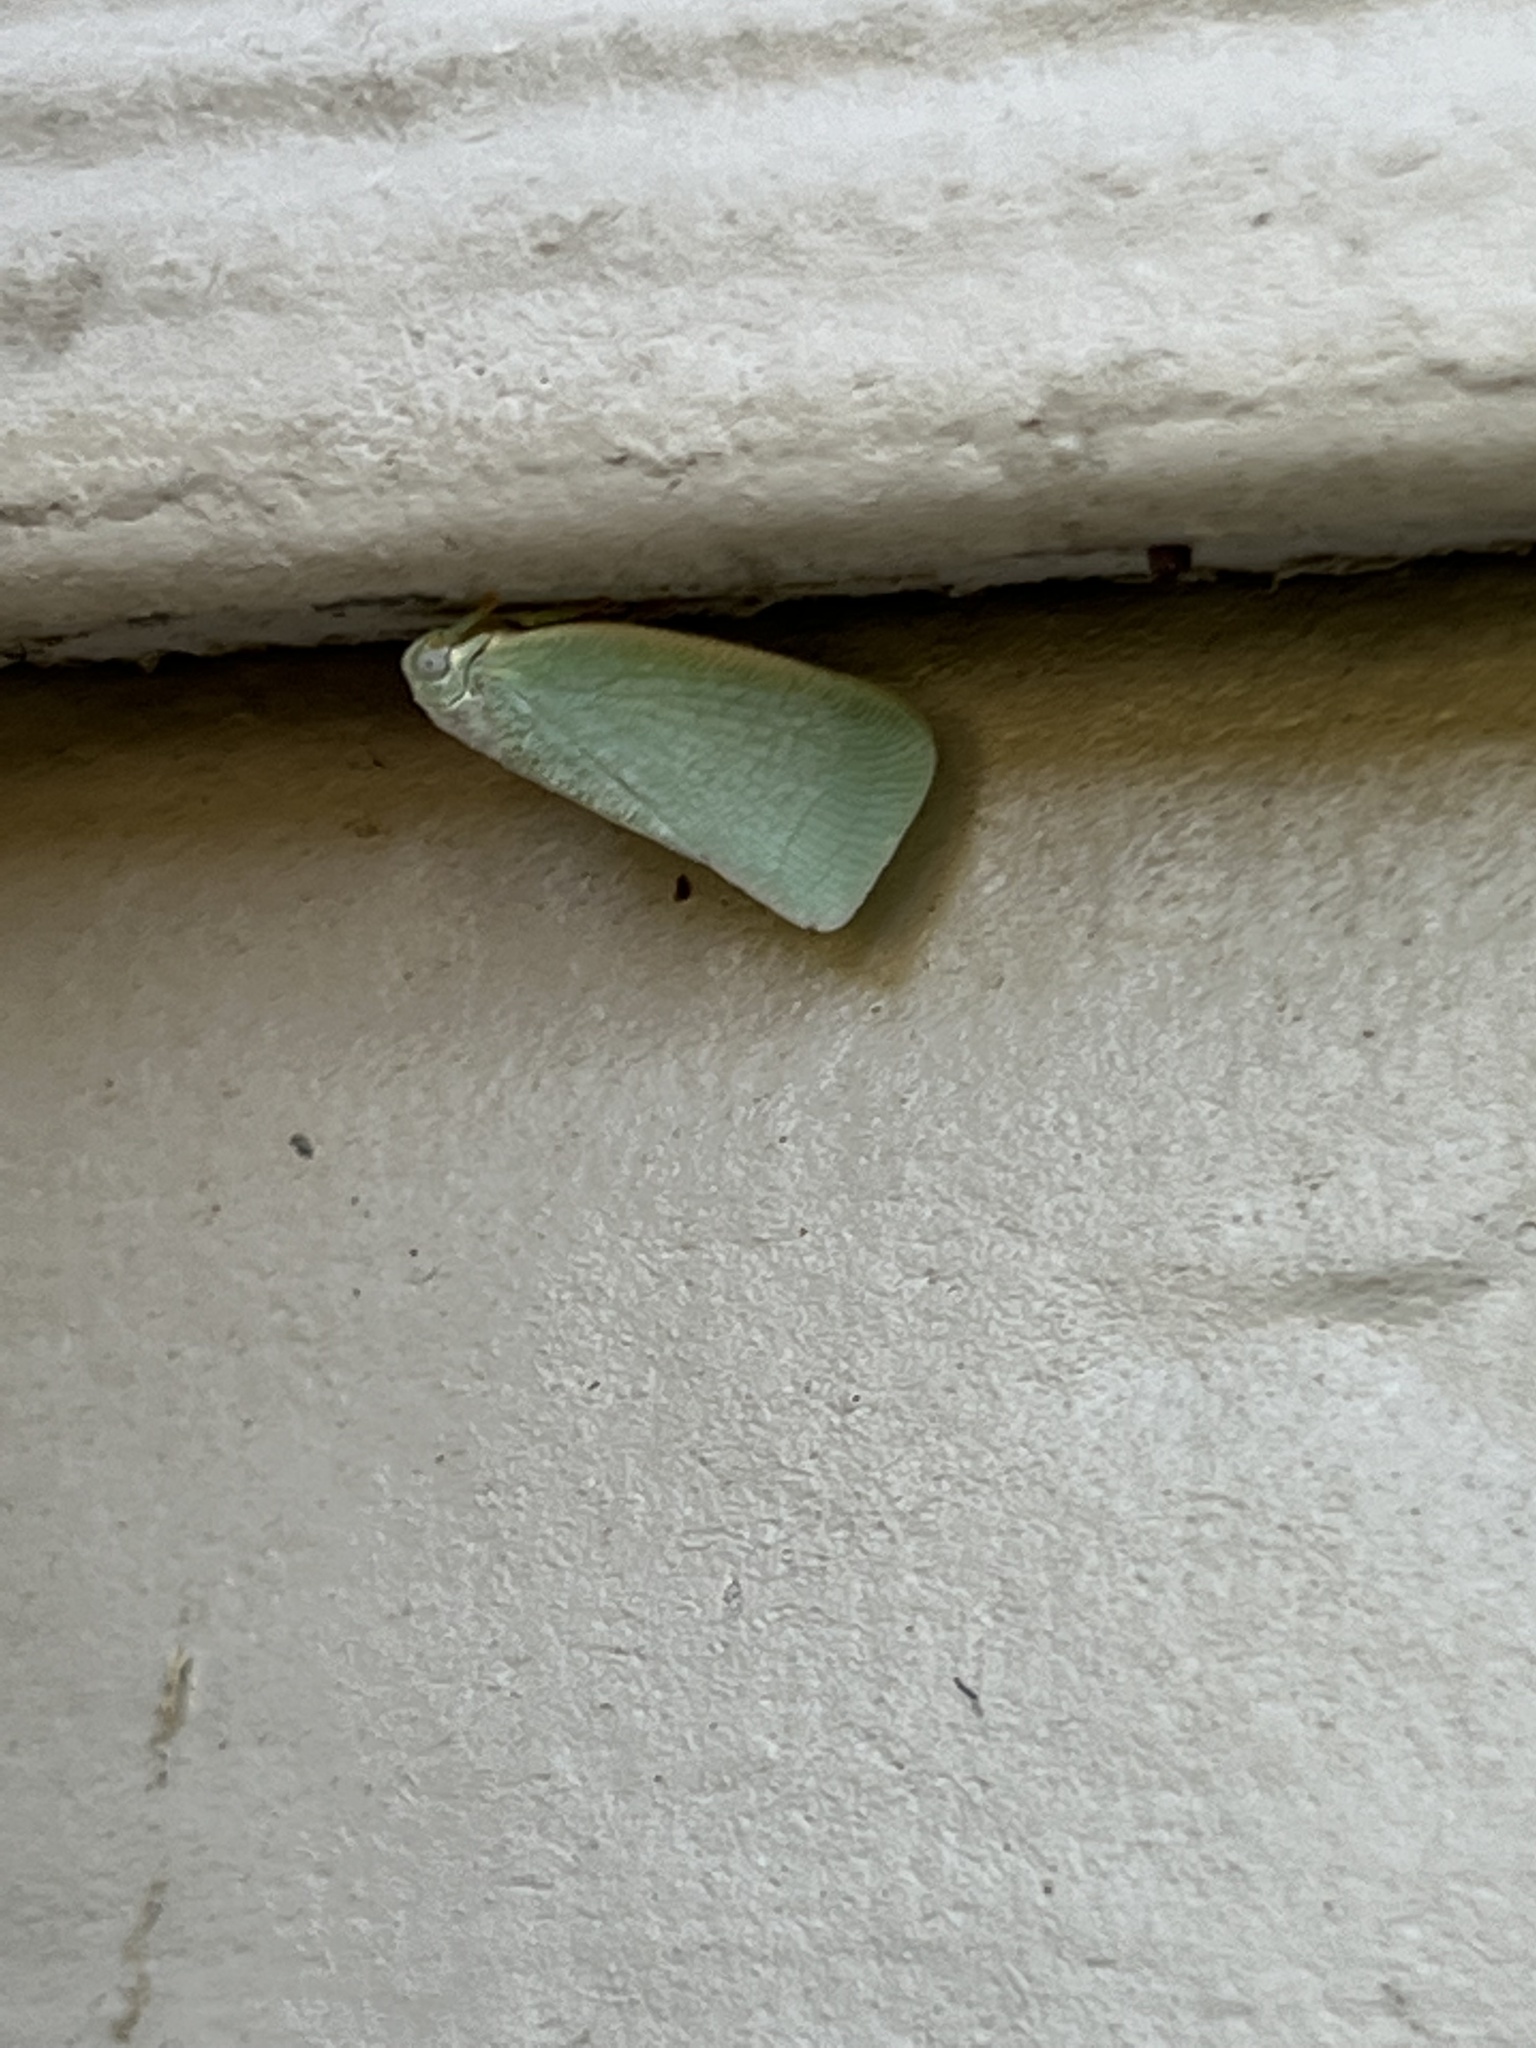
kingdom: Animalia
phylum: Arthropoda
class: Insecta
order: Hemiptera
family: Flatidae
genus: Flatormenis
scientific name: Flatormenis proxima
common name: Northern flatid planthopper
